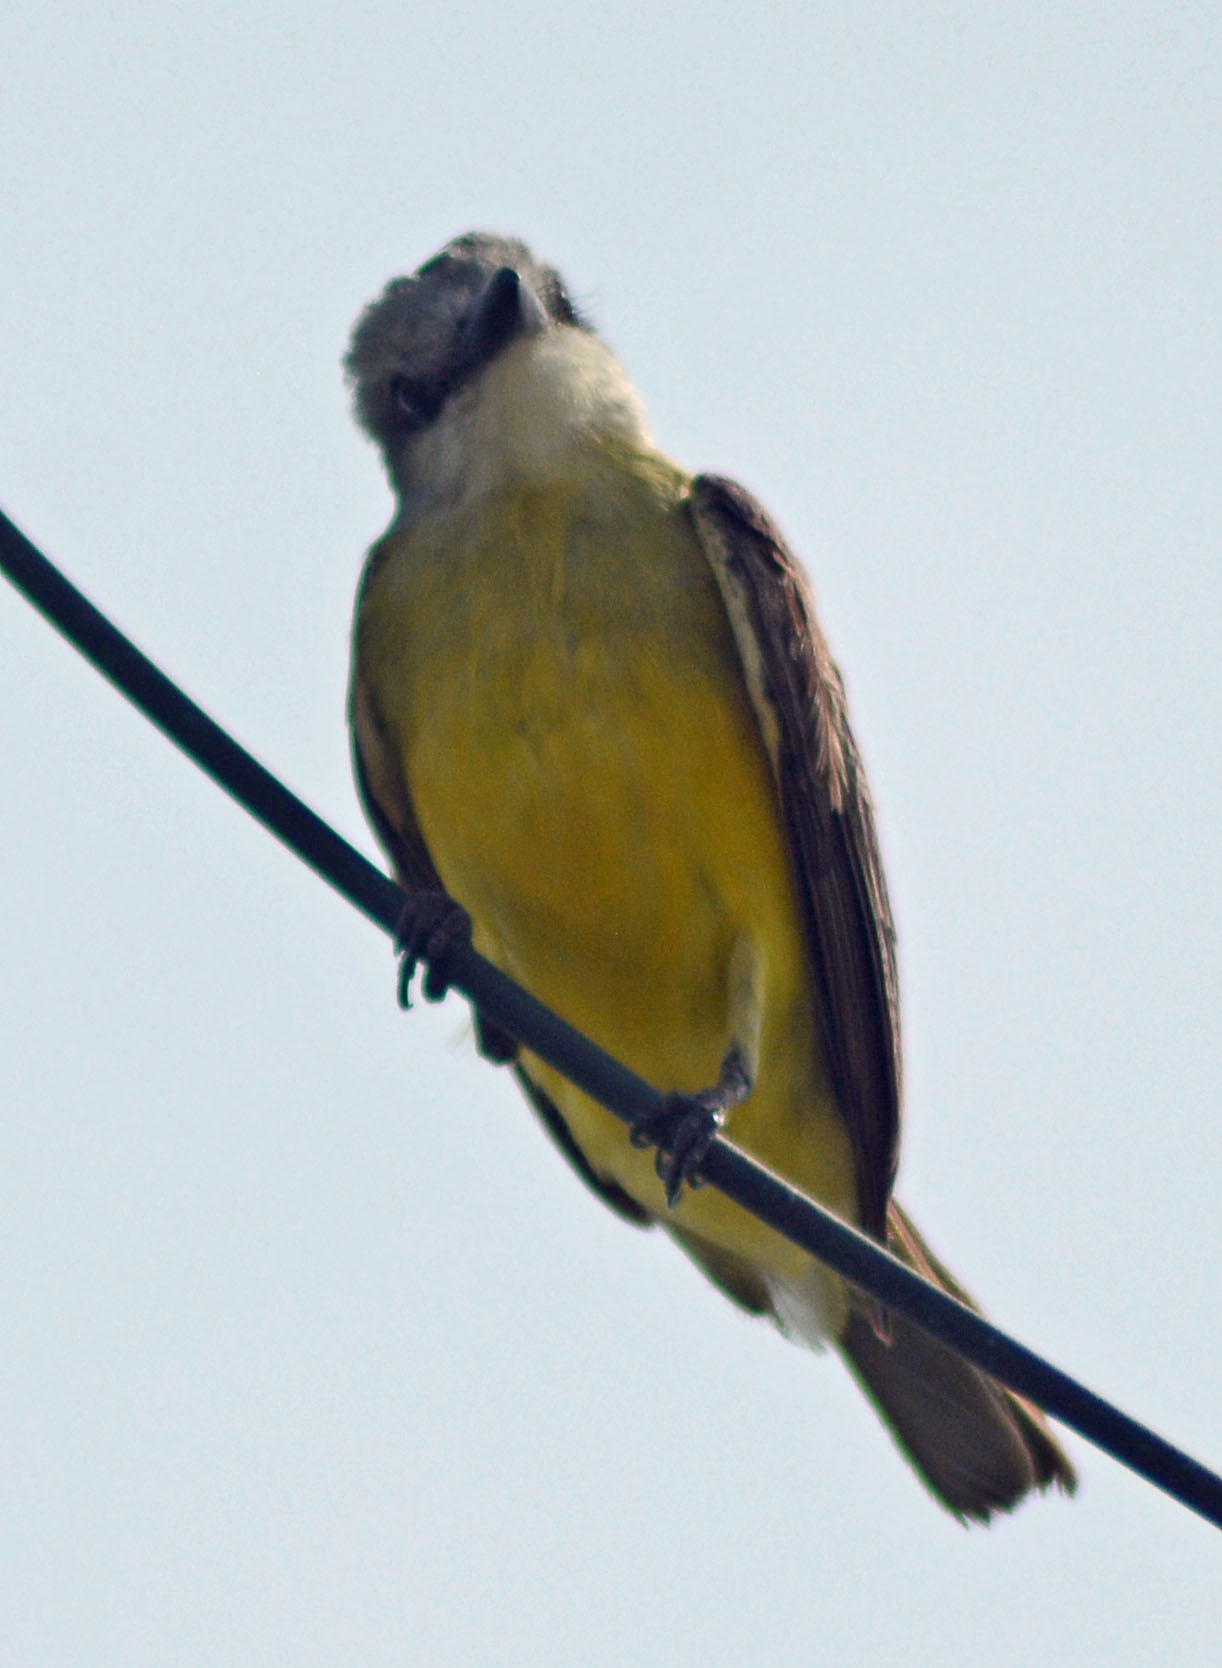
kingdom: Animalia
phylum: Chordata
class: Aves
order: Passeriformes
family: Tyrannidae
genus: Tyrannus
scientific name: Tyrannus melancholicus
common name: Tropical kingbird
